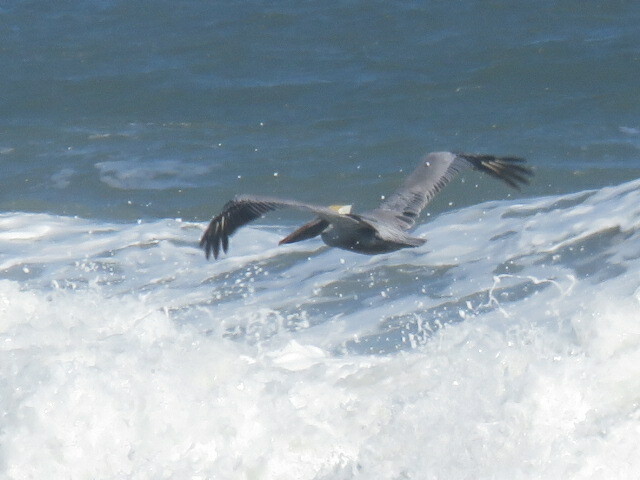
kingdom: Animalia
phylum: Chordata
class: Aves
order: Pelecaniformes
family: Pelecanidae
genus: Pelecanus
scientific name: Pelecanus occidentalis
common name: Brown pelican
